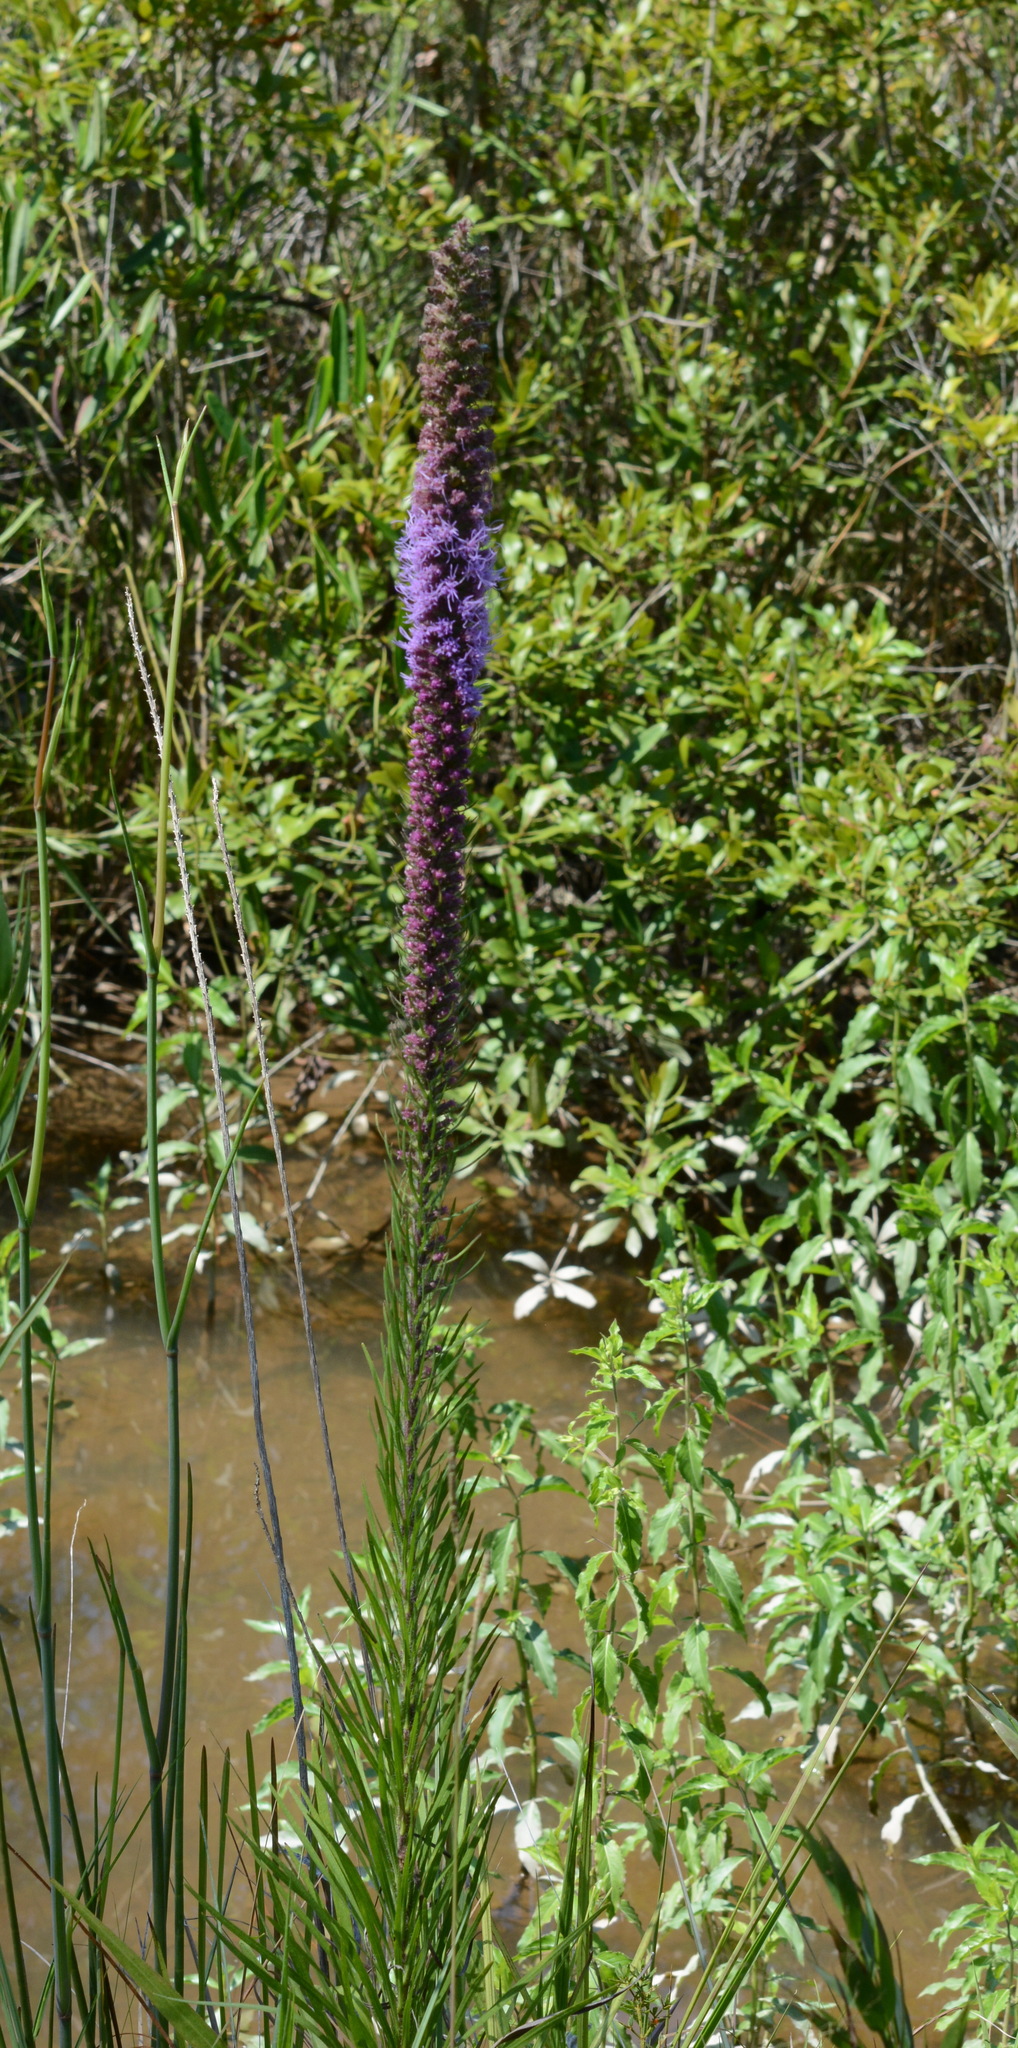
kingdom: Plantae
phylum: Tracheophyta
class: Magnoliopsida
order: Asterales
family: Asteraceae
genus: Liatris
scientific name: Liatris pycnostachya
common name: Cattail gayfeather
